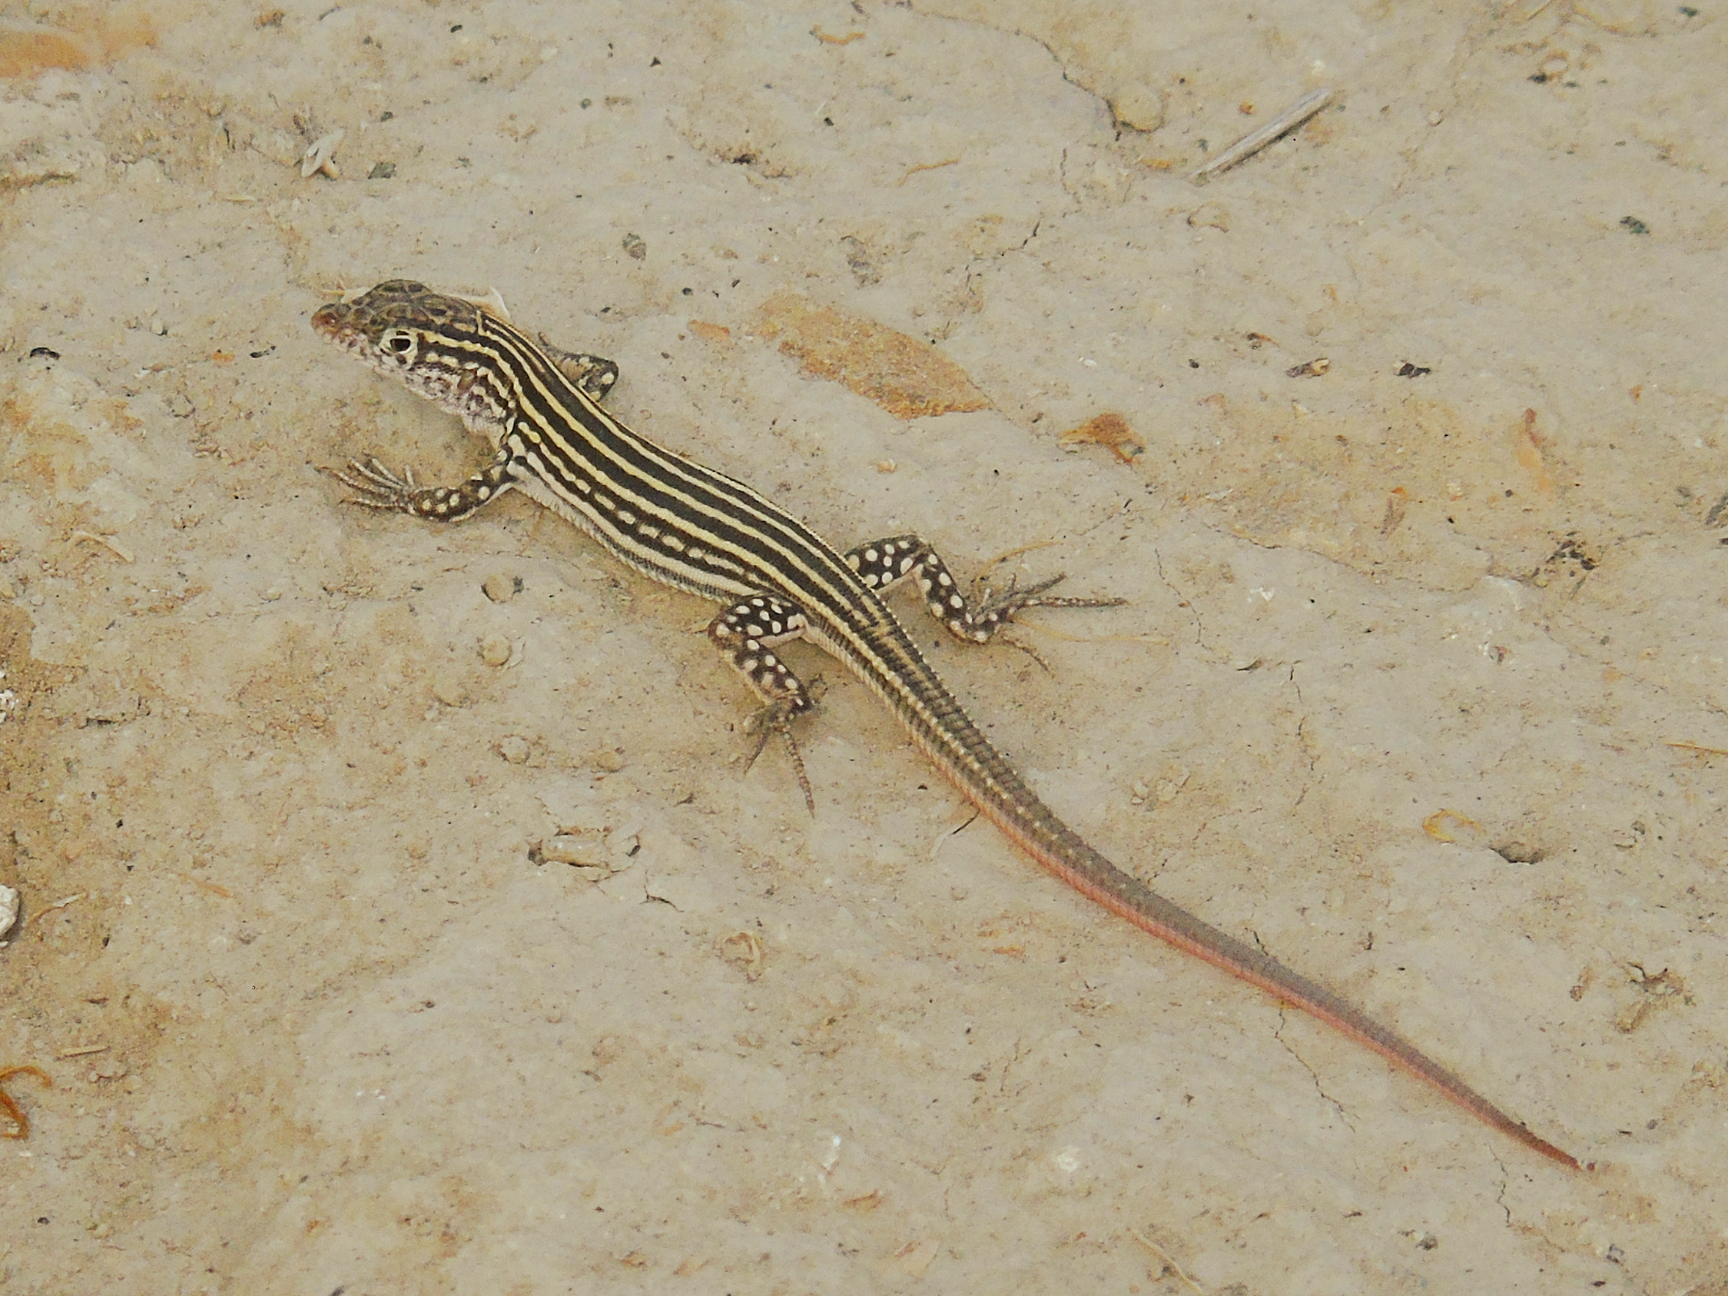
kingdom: Animalia
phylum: Chordata
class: Squamata
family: Lacertidae
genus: Eremias
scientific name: Eremias velox
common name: Central asian racerunner
